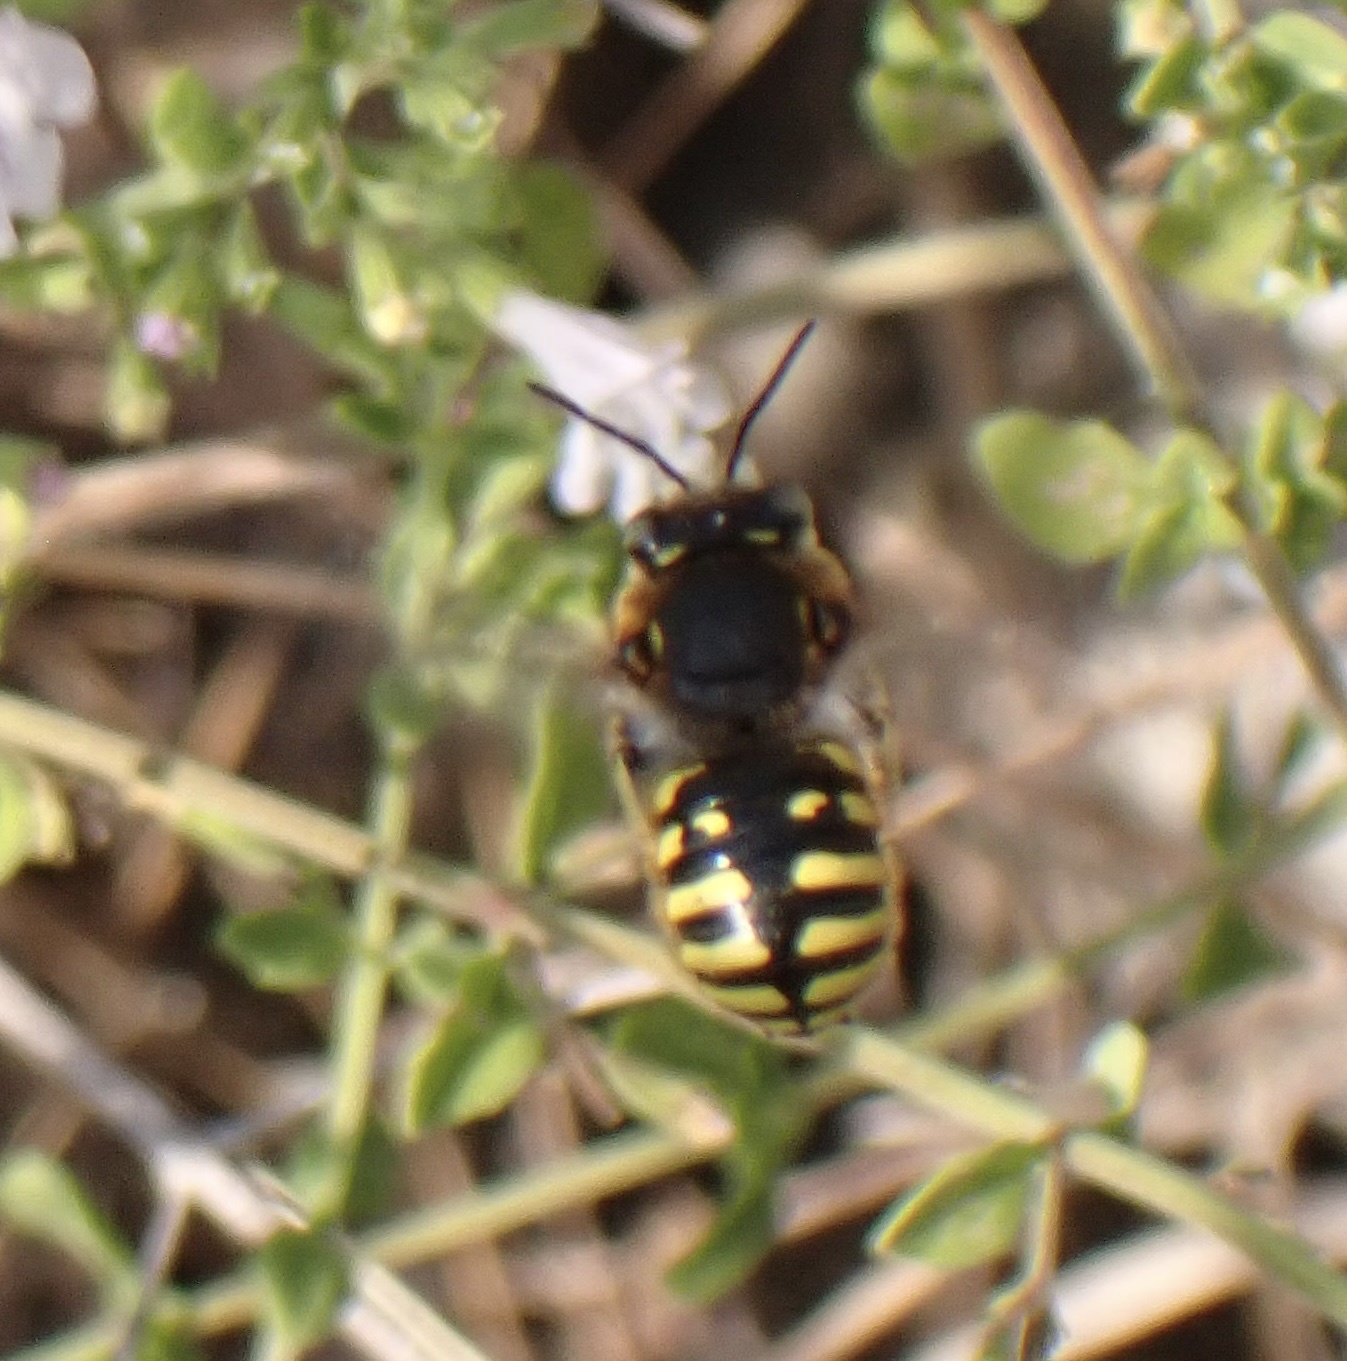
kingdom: Animalia
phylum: Arthropoda
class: Insecta
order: Hymenoptera
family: Megachilidae
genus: Anthidium
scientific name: Anthidium manicatum
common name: Wool carder bee
